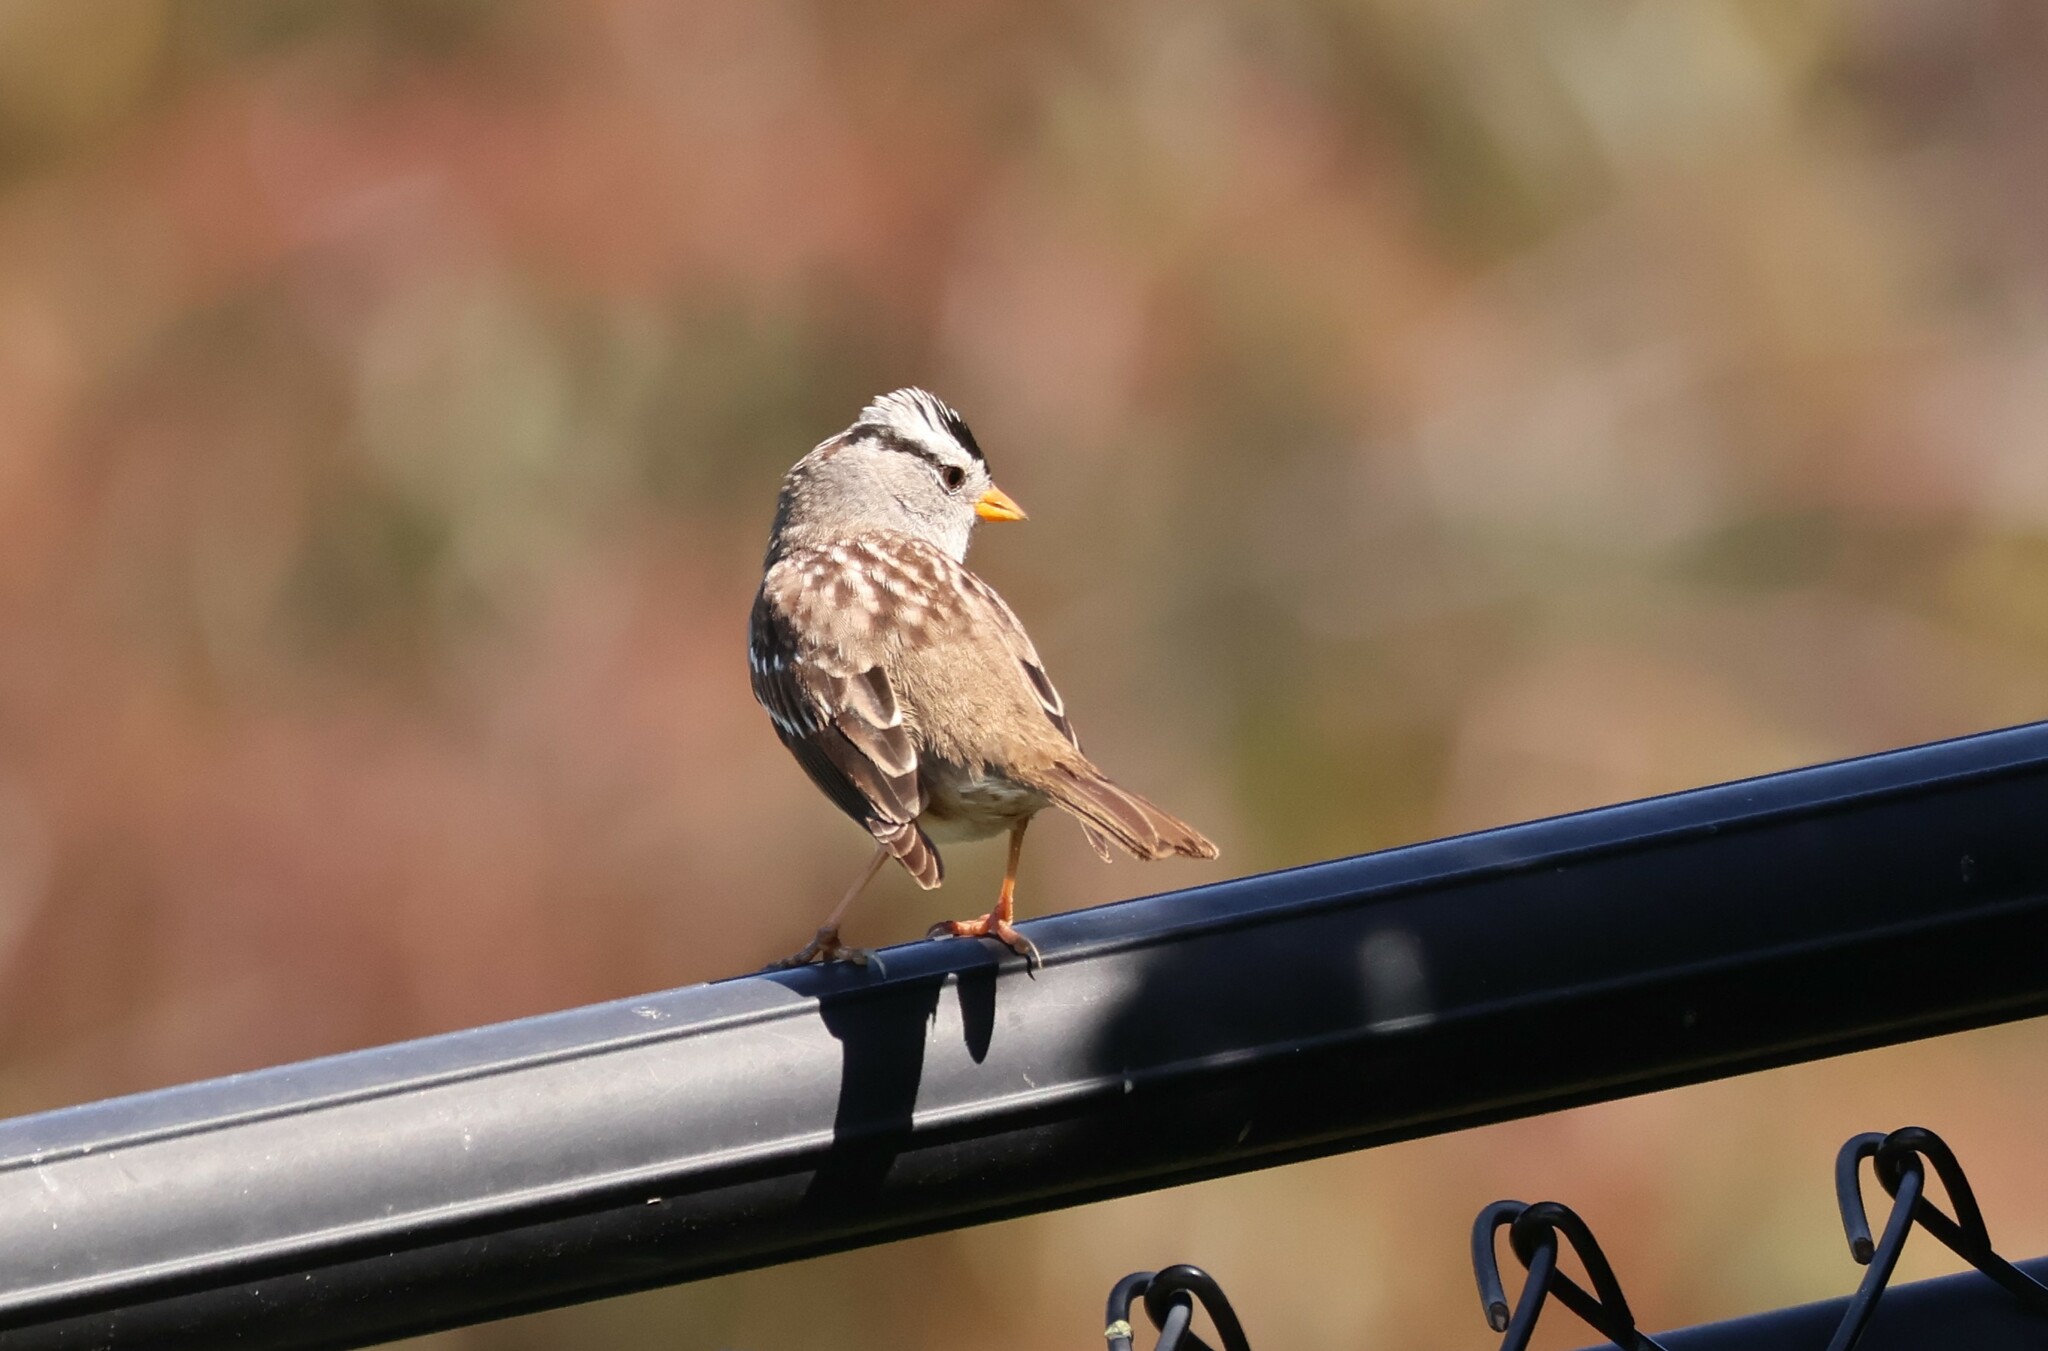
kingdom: Animalia
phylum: Chordata
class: Aves
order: Passeriformes
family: Passerellidae
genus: Zonotrichia
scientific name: Zonotrichia leucophrys
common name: White-crowned sparrow
